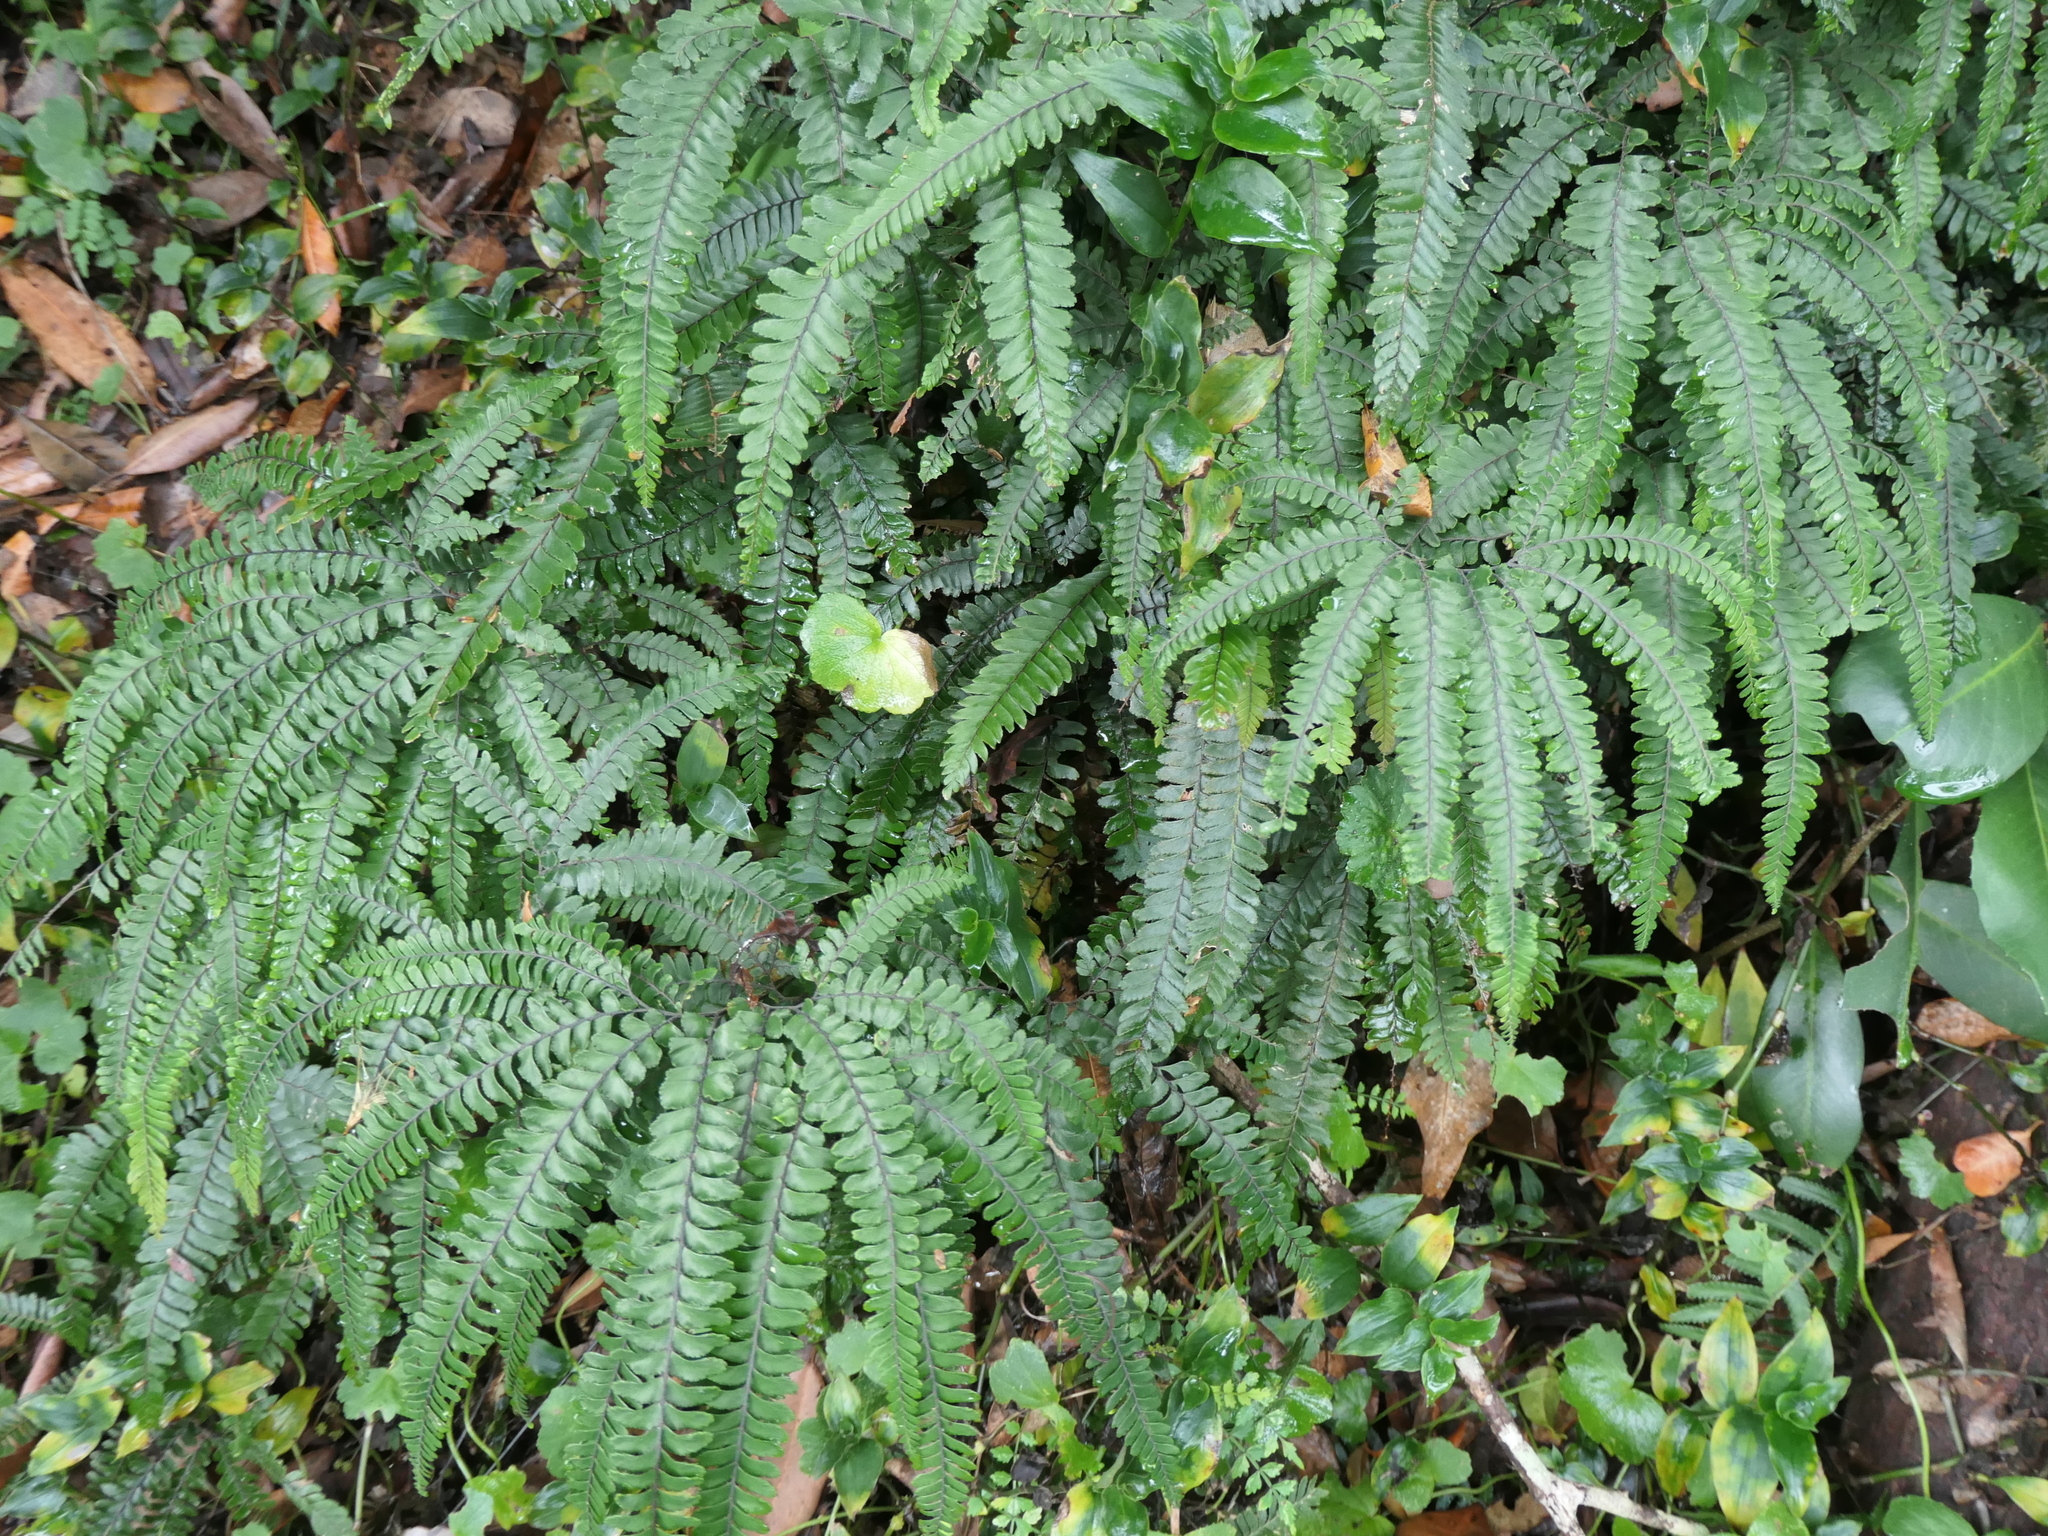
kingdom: Plantae
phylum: Tracheophyta
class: Polypodiopsida
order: Polypodiales
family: Pteridaceae
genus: Adiantum
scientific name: Adiantum hispidulum
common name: Rough maidenhair
